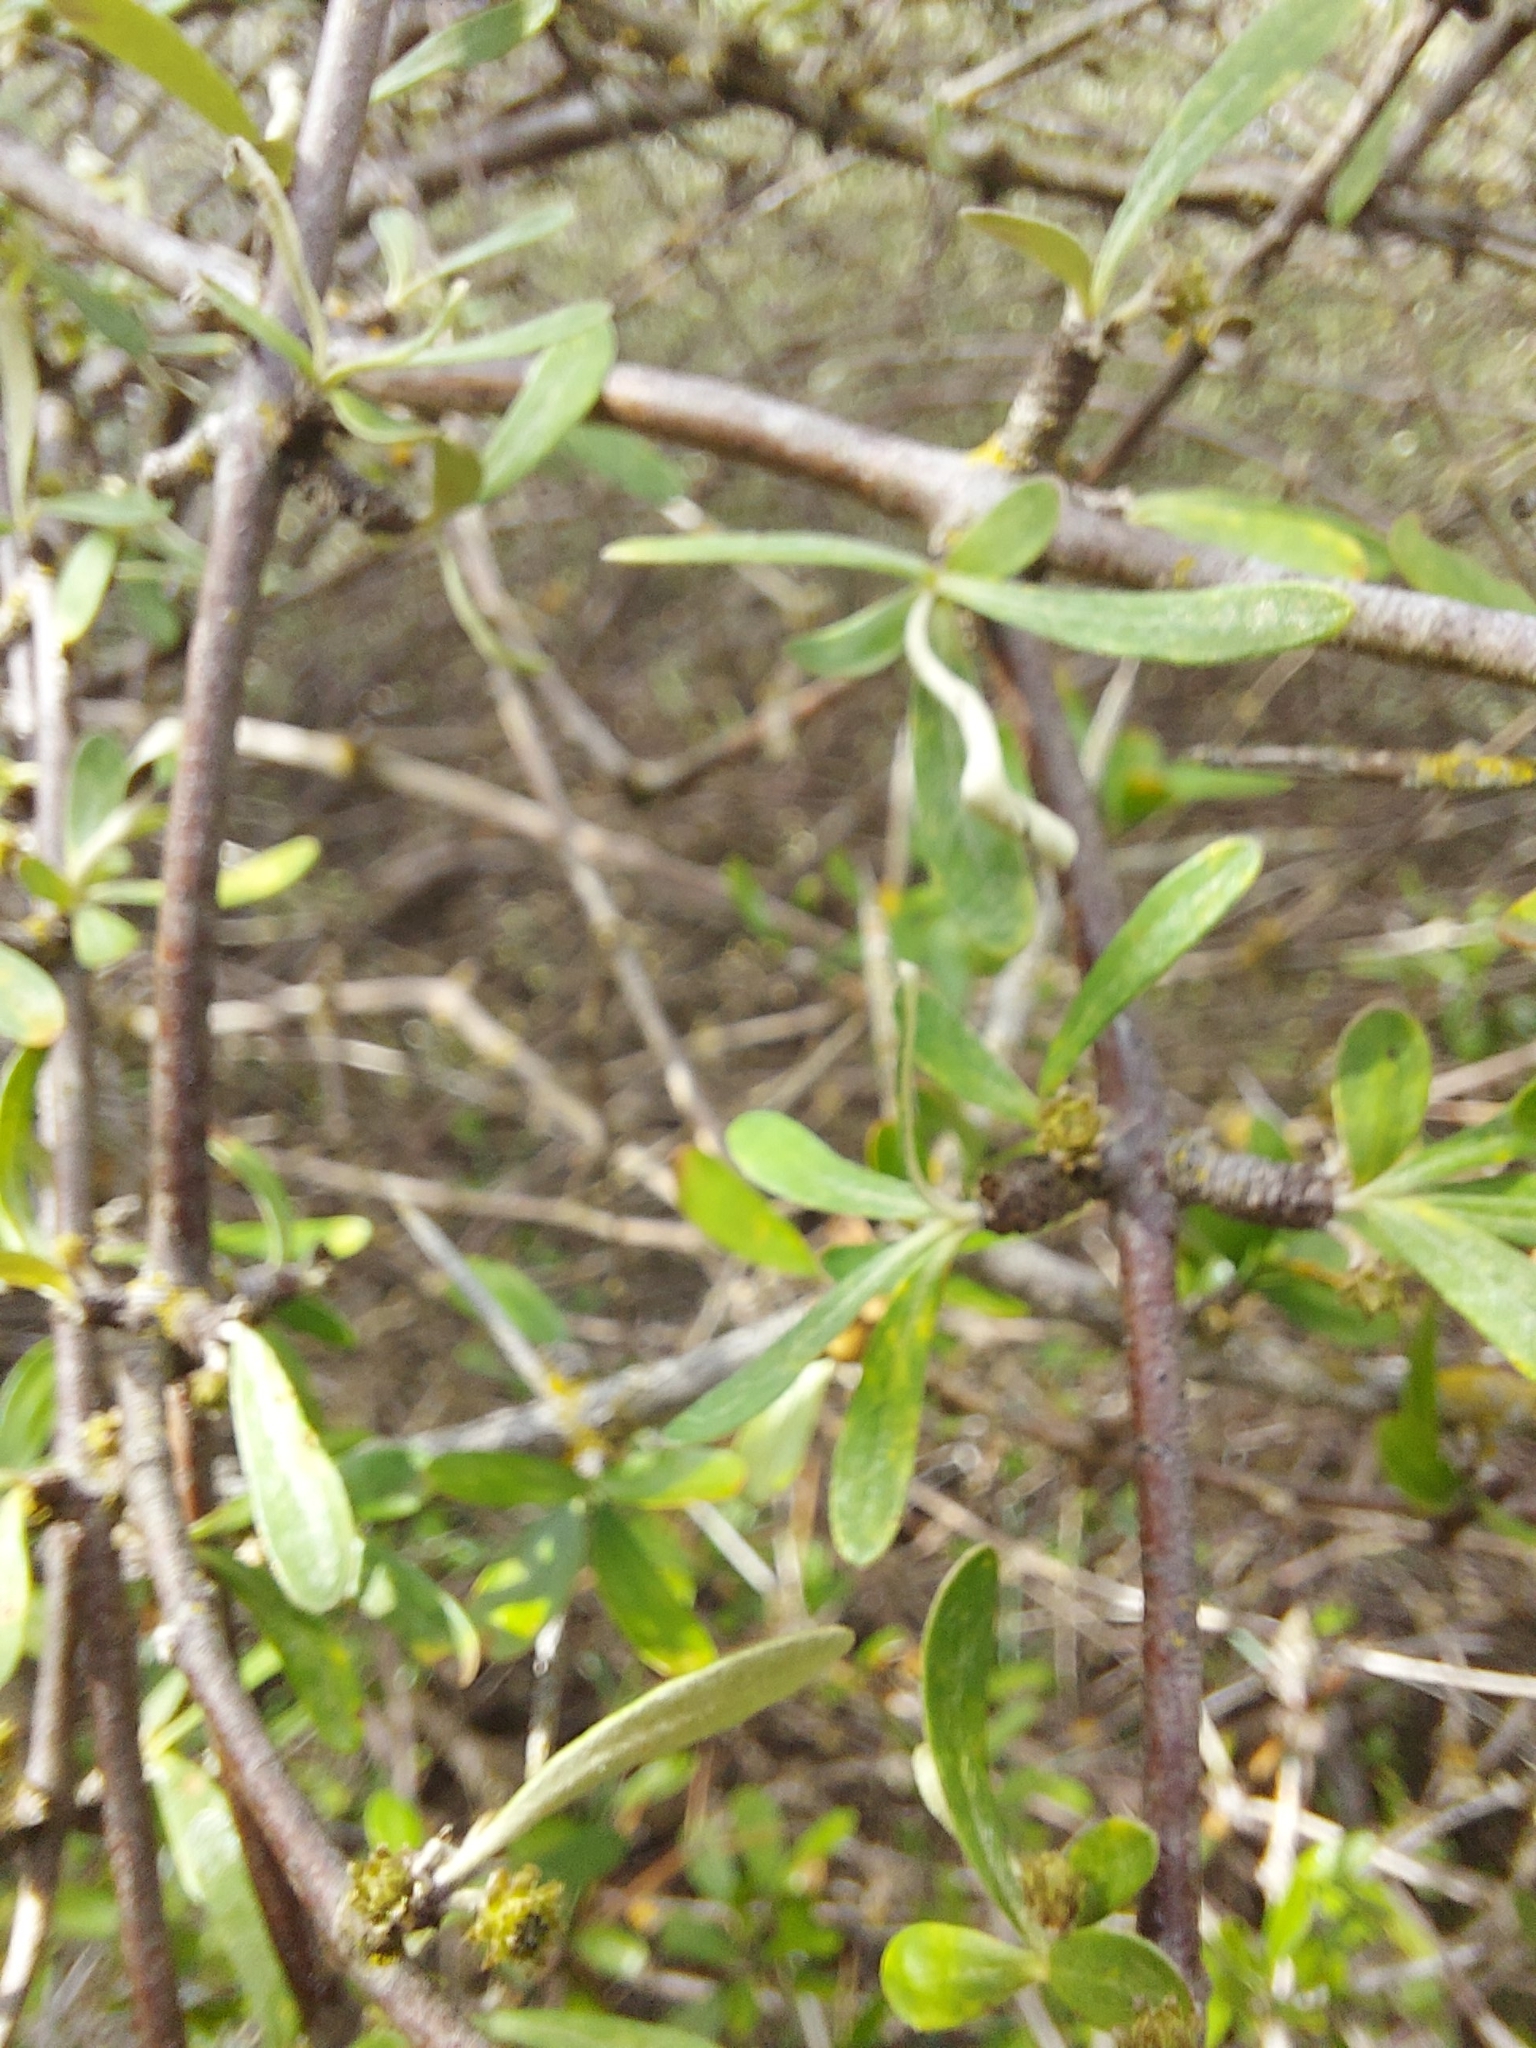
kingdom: Plantae
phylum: Tracheophyta
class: Magnoliopsida
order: Asterales
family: Asteraceae
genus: Olearia
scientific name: Olearia odorata
